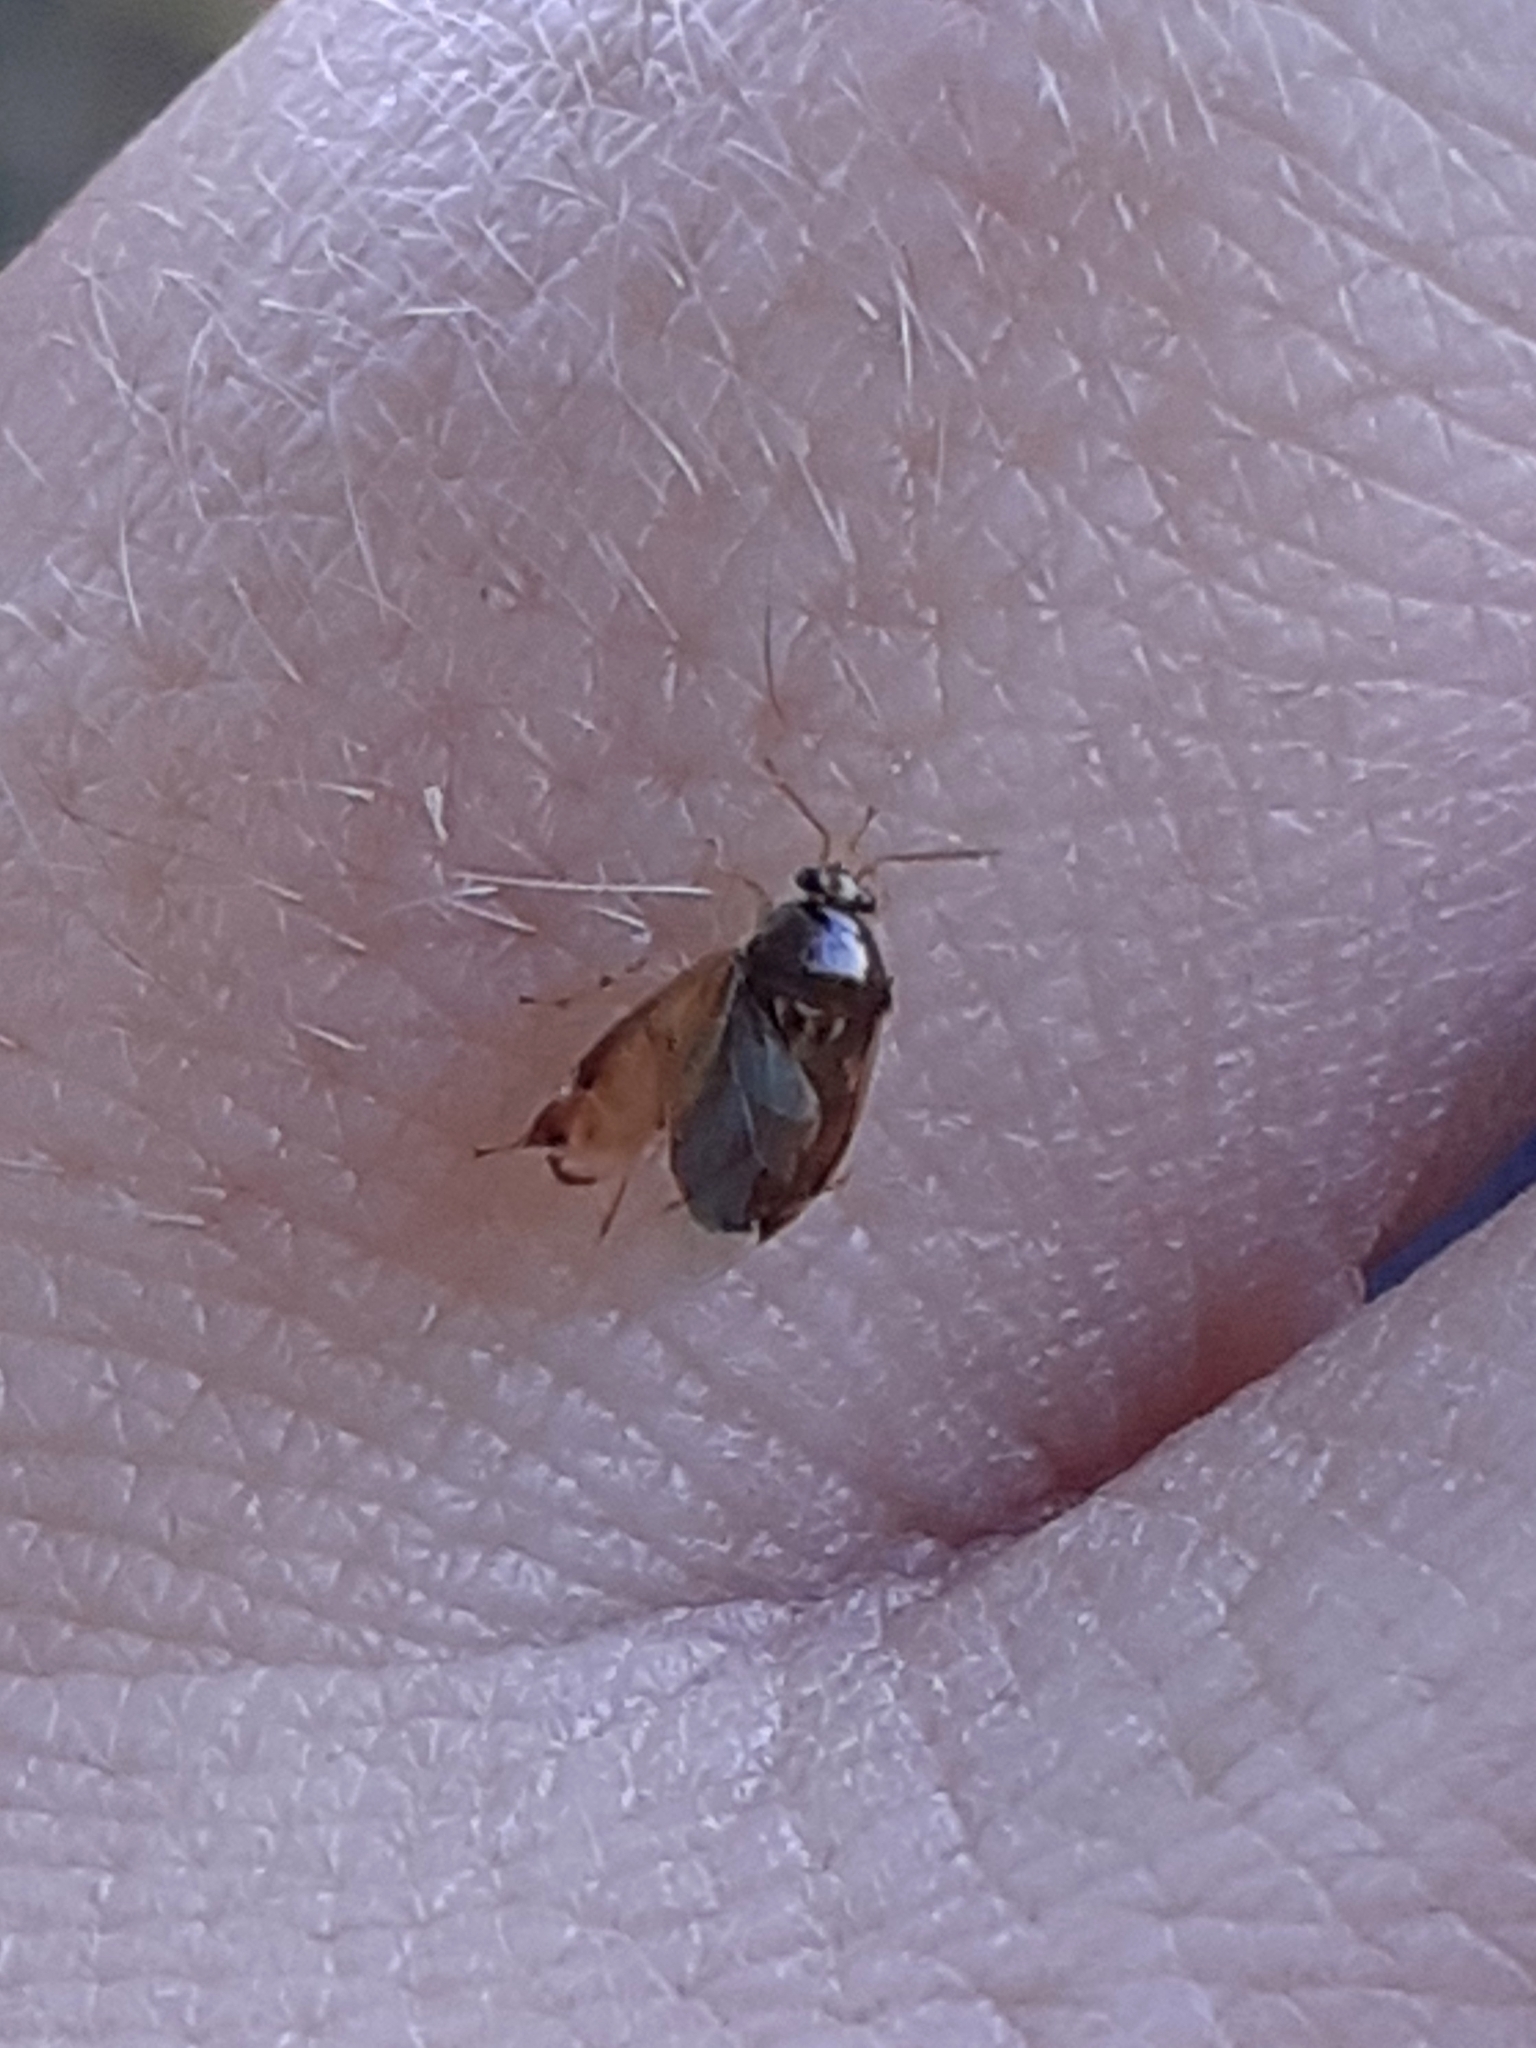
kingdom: Animalia
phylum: Arthropoda
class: Insecta
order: Hemiptera
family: Miridae
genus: Deraeocoris
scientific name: Deraeocoris lutescens
